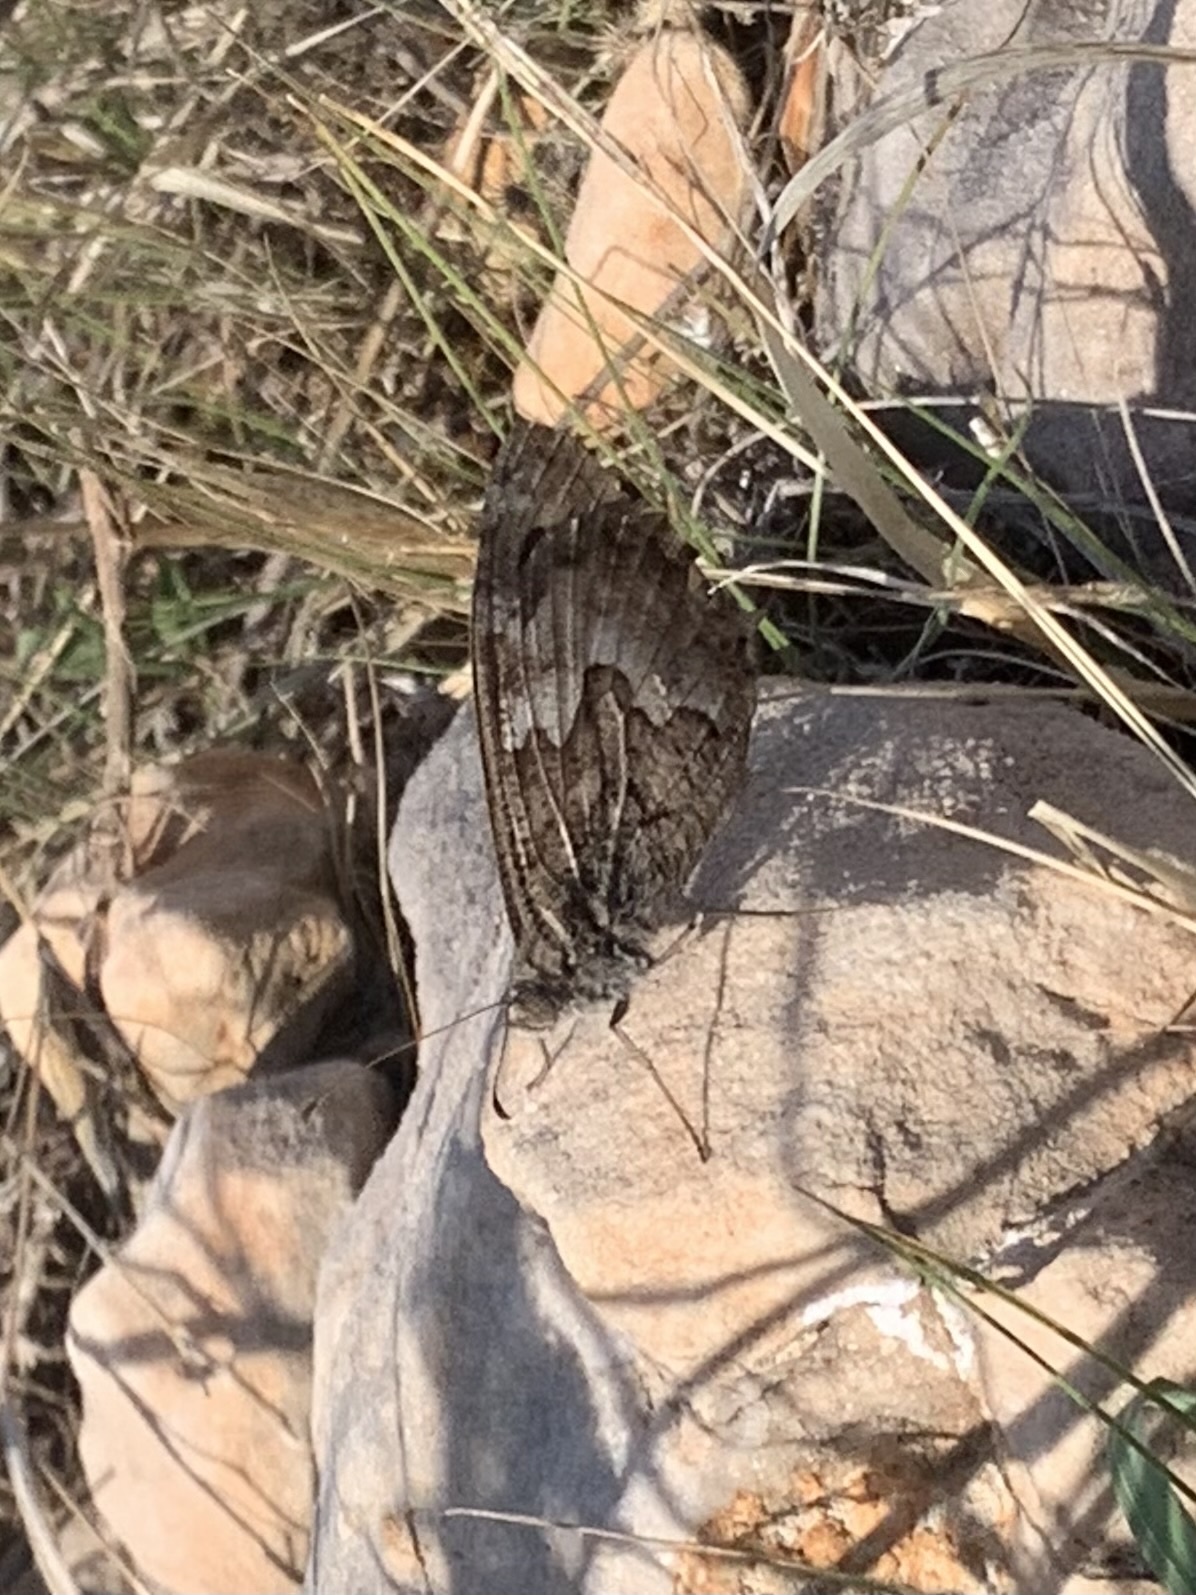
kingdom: Animalia
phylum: Arthropoda
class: Insecta
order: Lepidoptera
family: Nymphalidae
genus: Hipparchia
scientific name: Hipparchia statilinus
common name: Tree grayling
